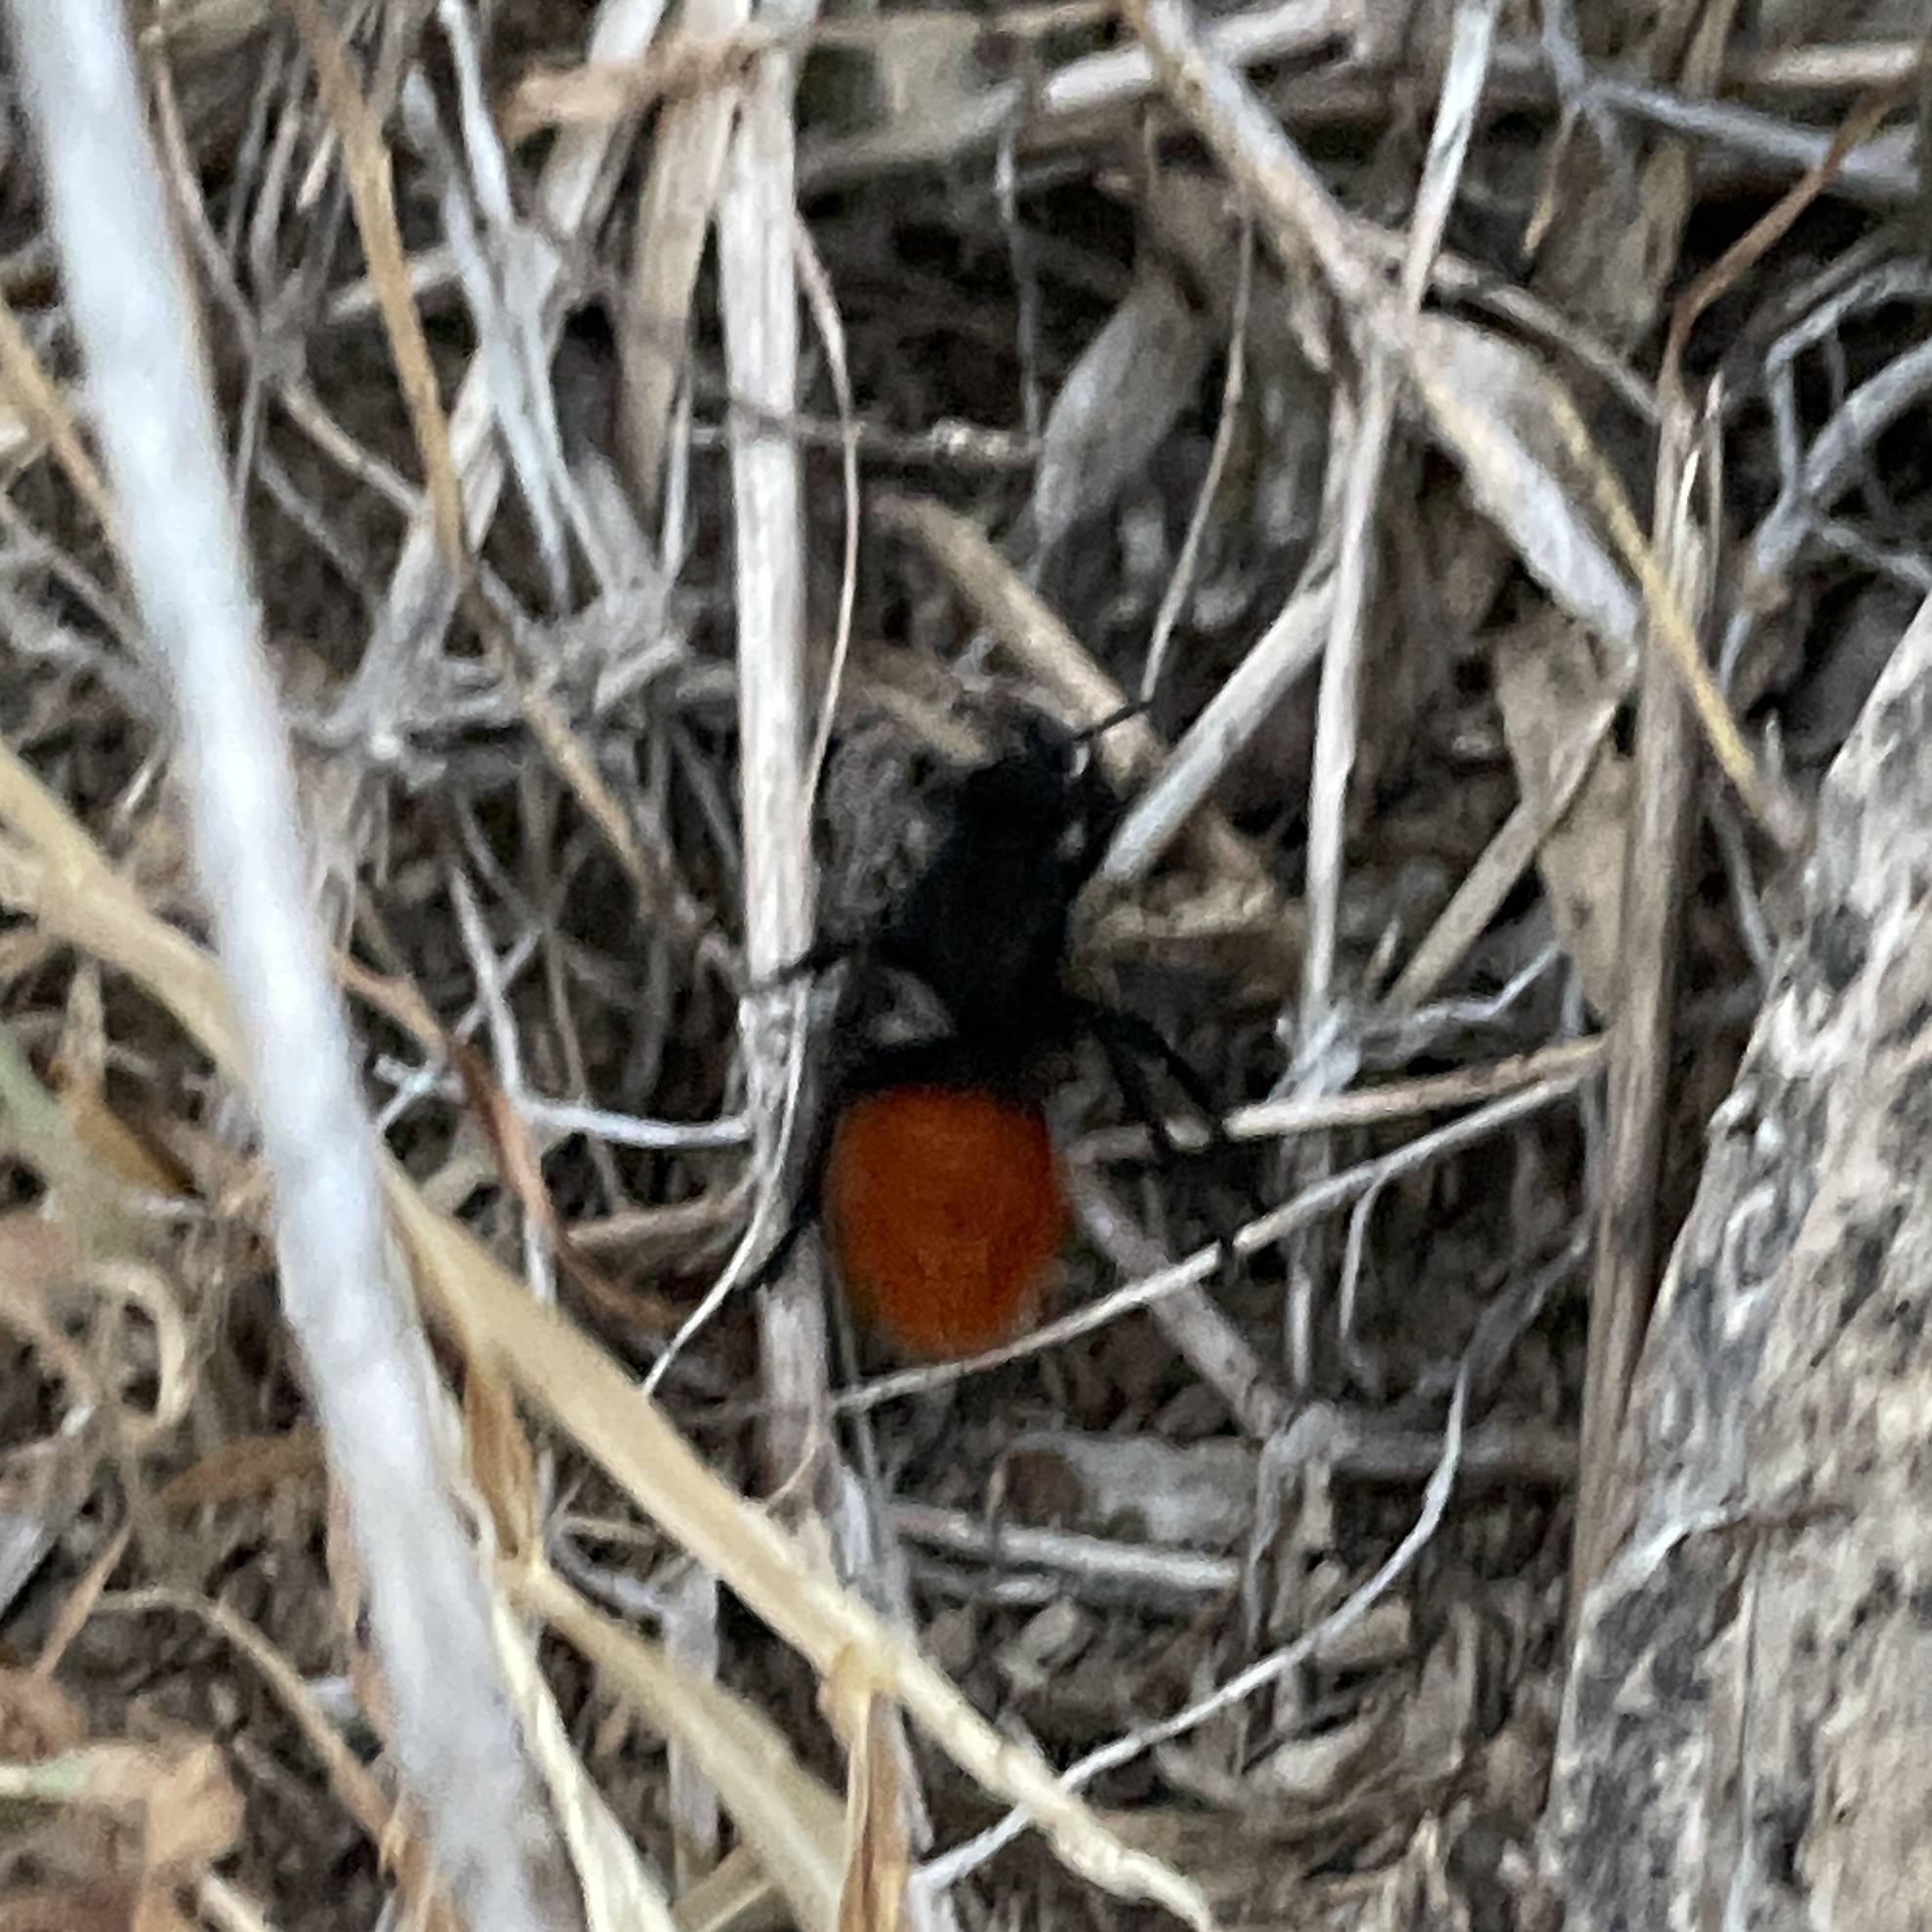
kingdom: Animalia
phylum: Arthropoda
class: Insecta
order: Hymenoptera
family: Mutillidae
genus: Dasymutilla
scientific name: Dasymutilla
